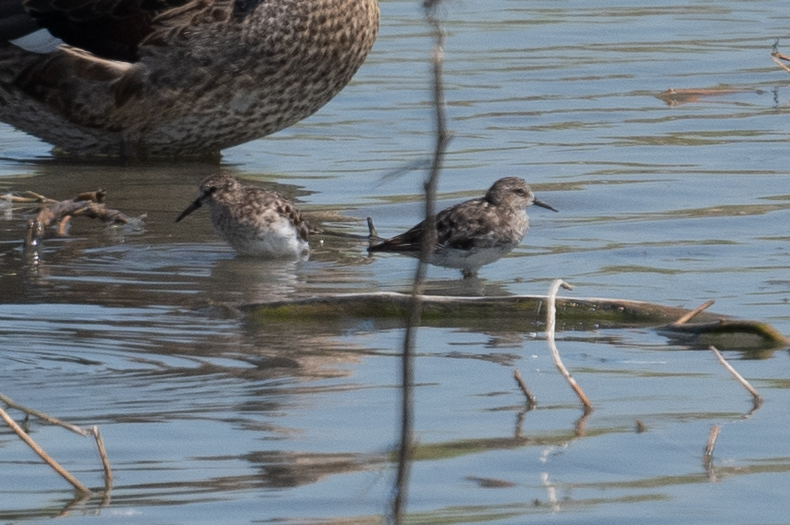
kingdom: Animalia
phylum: Chordata
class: Aves
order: Charadriiformes
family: Scolopacidae
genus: Calidris
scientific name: Calidris minutilla
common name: Least sandpiper
